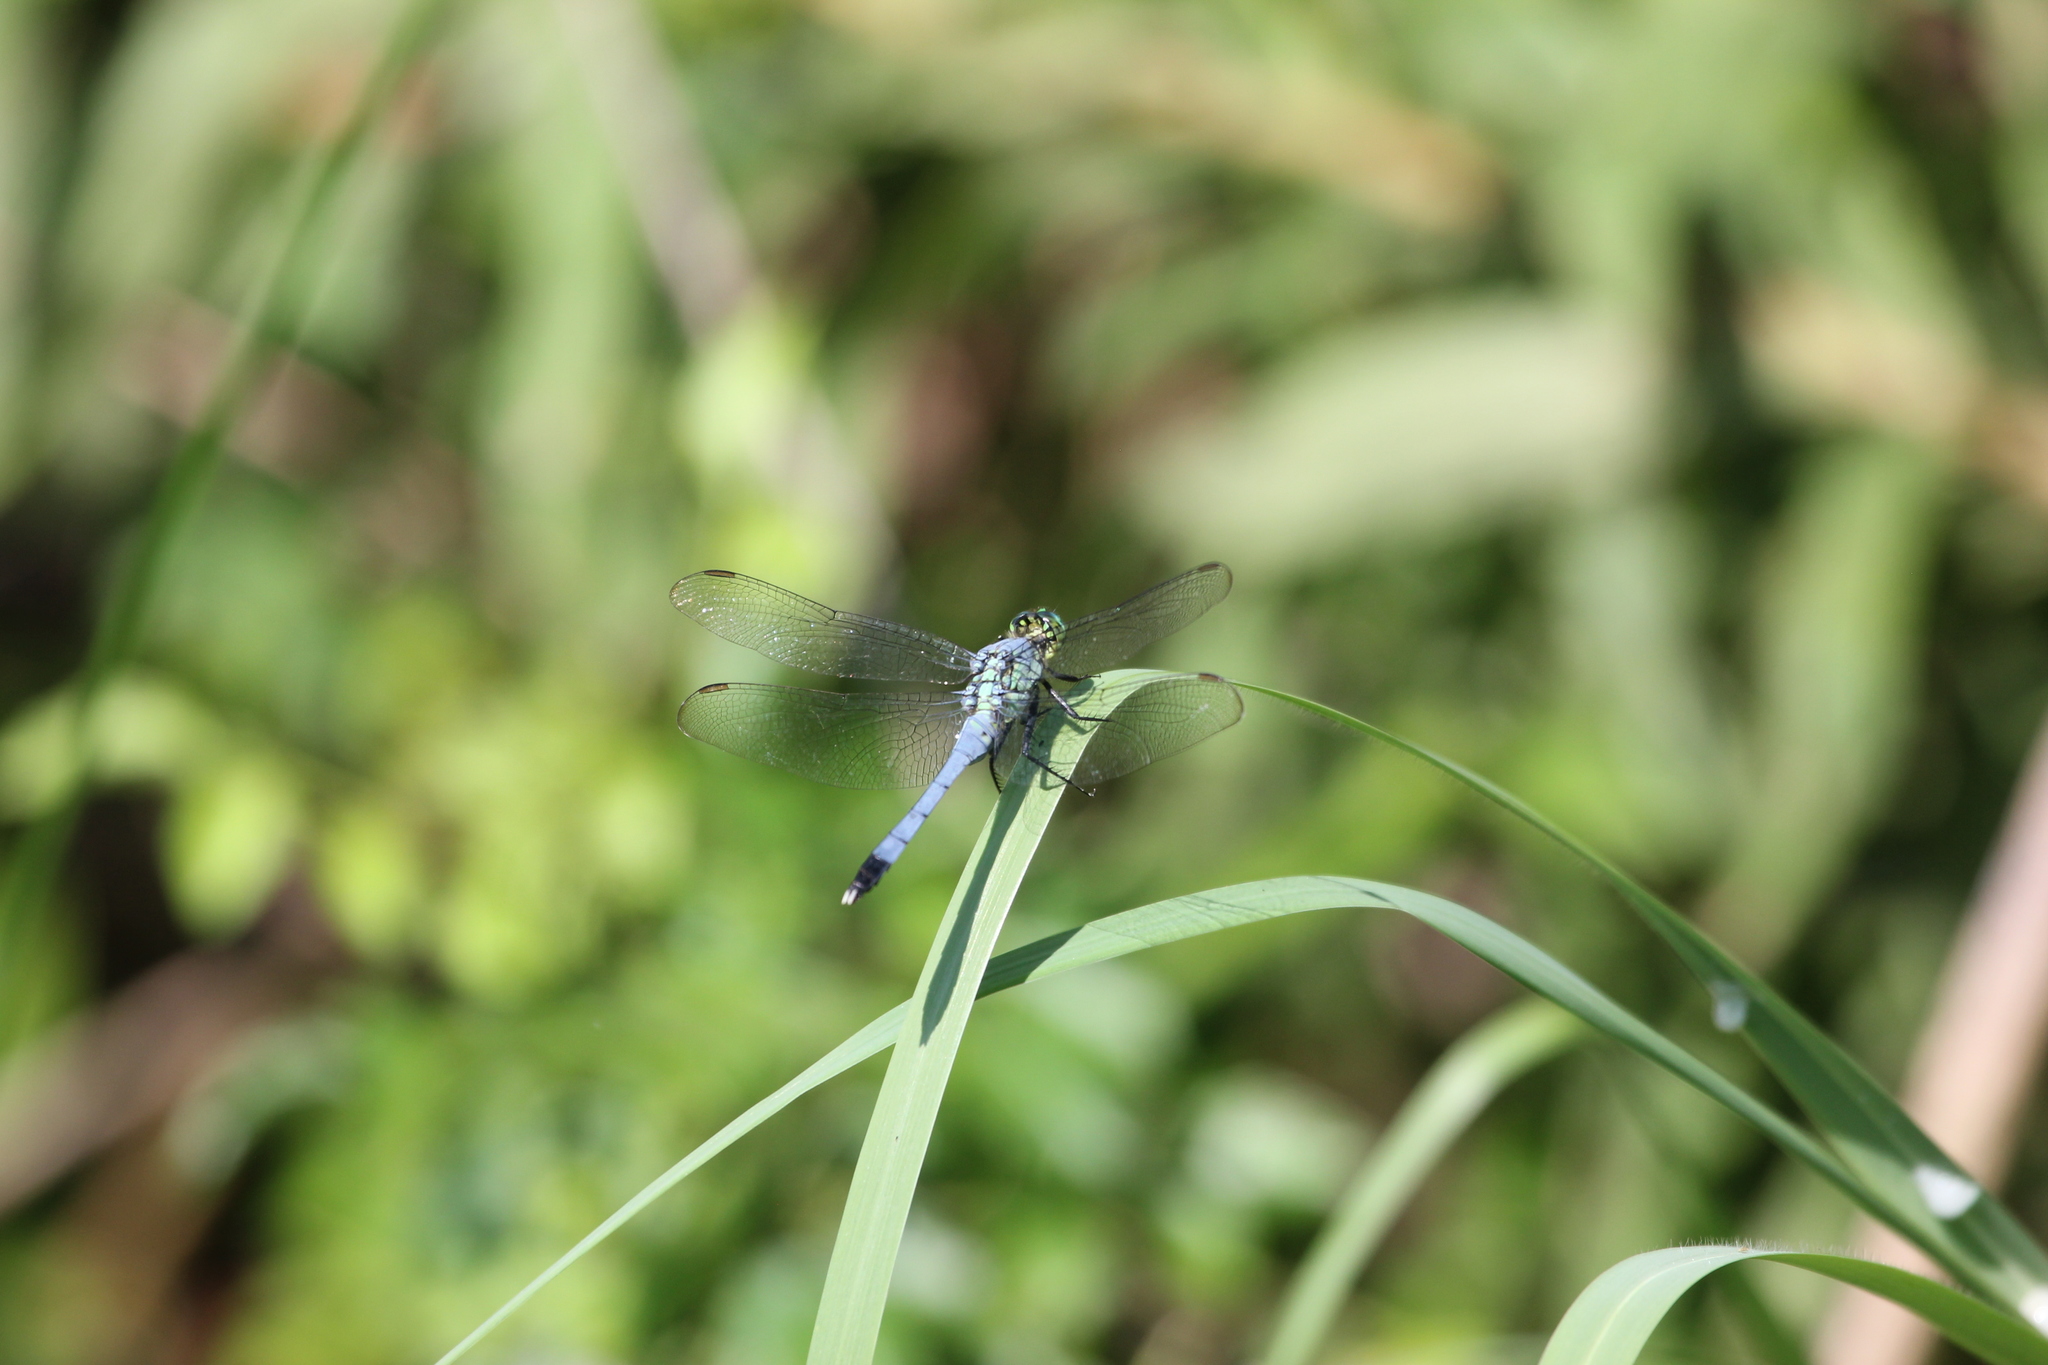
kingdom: Animalia
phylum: Arthropoda
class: Insecta
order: Odonata
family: Libellulidae
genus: Erythemis
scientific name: Erythemis simplicicollis
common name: Eastern pondhawk
